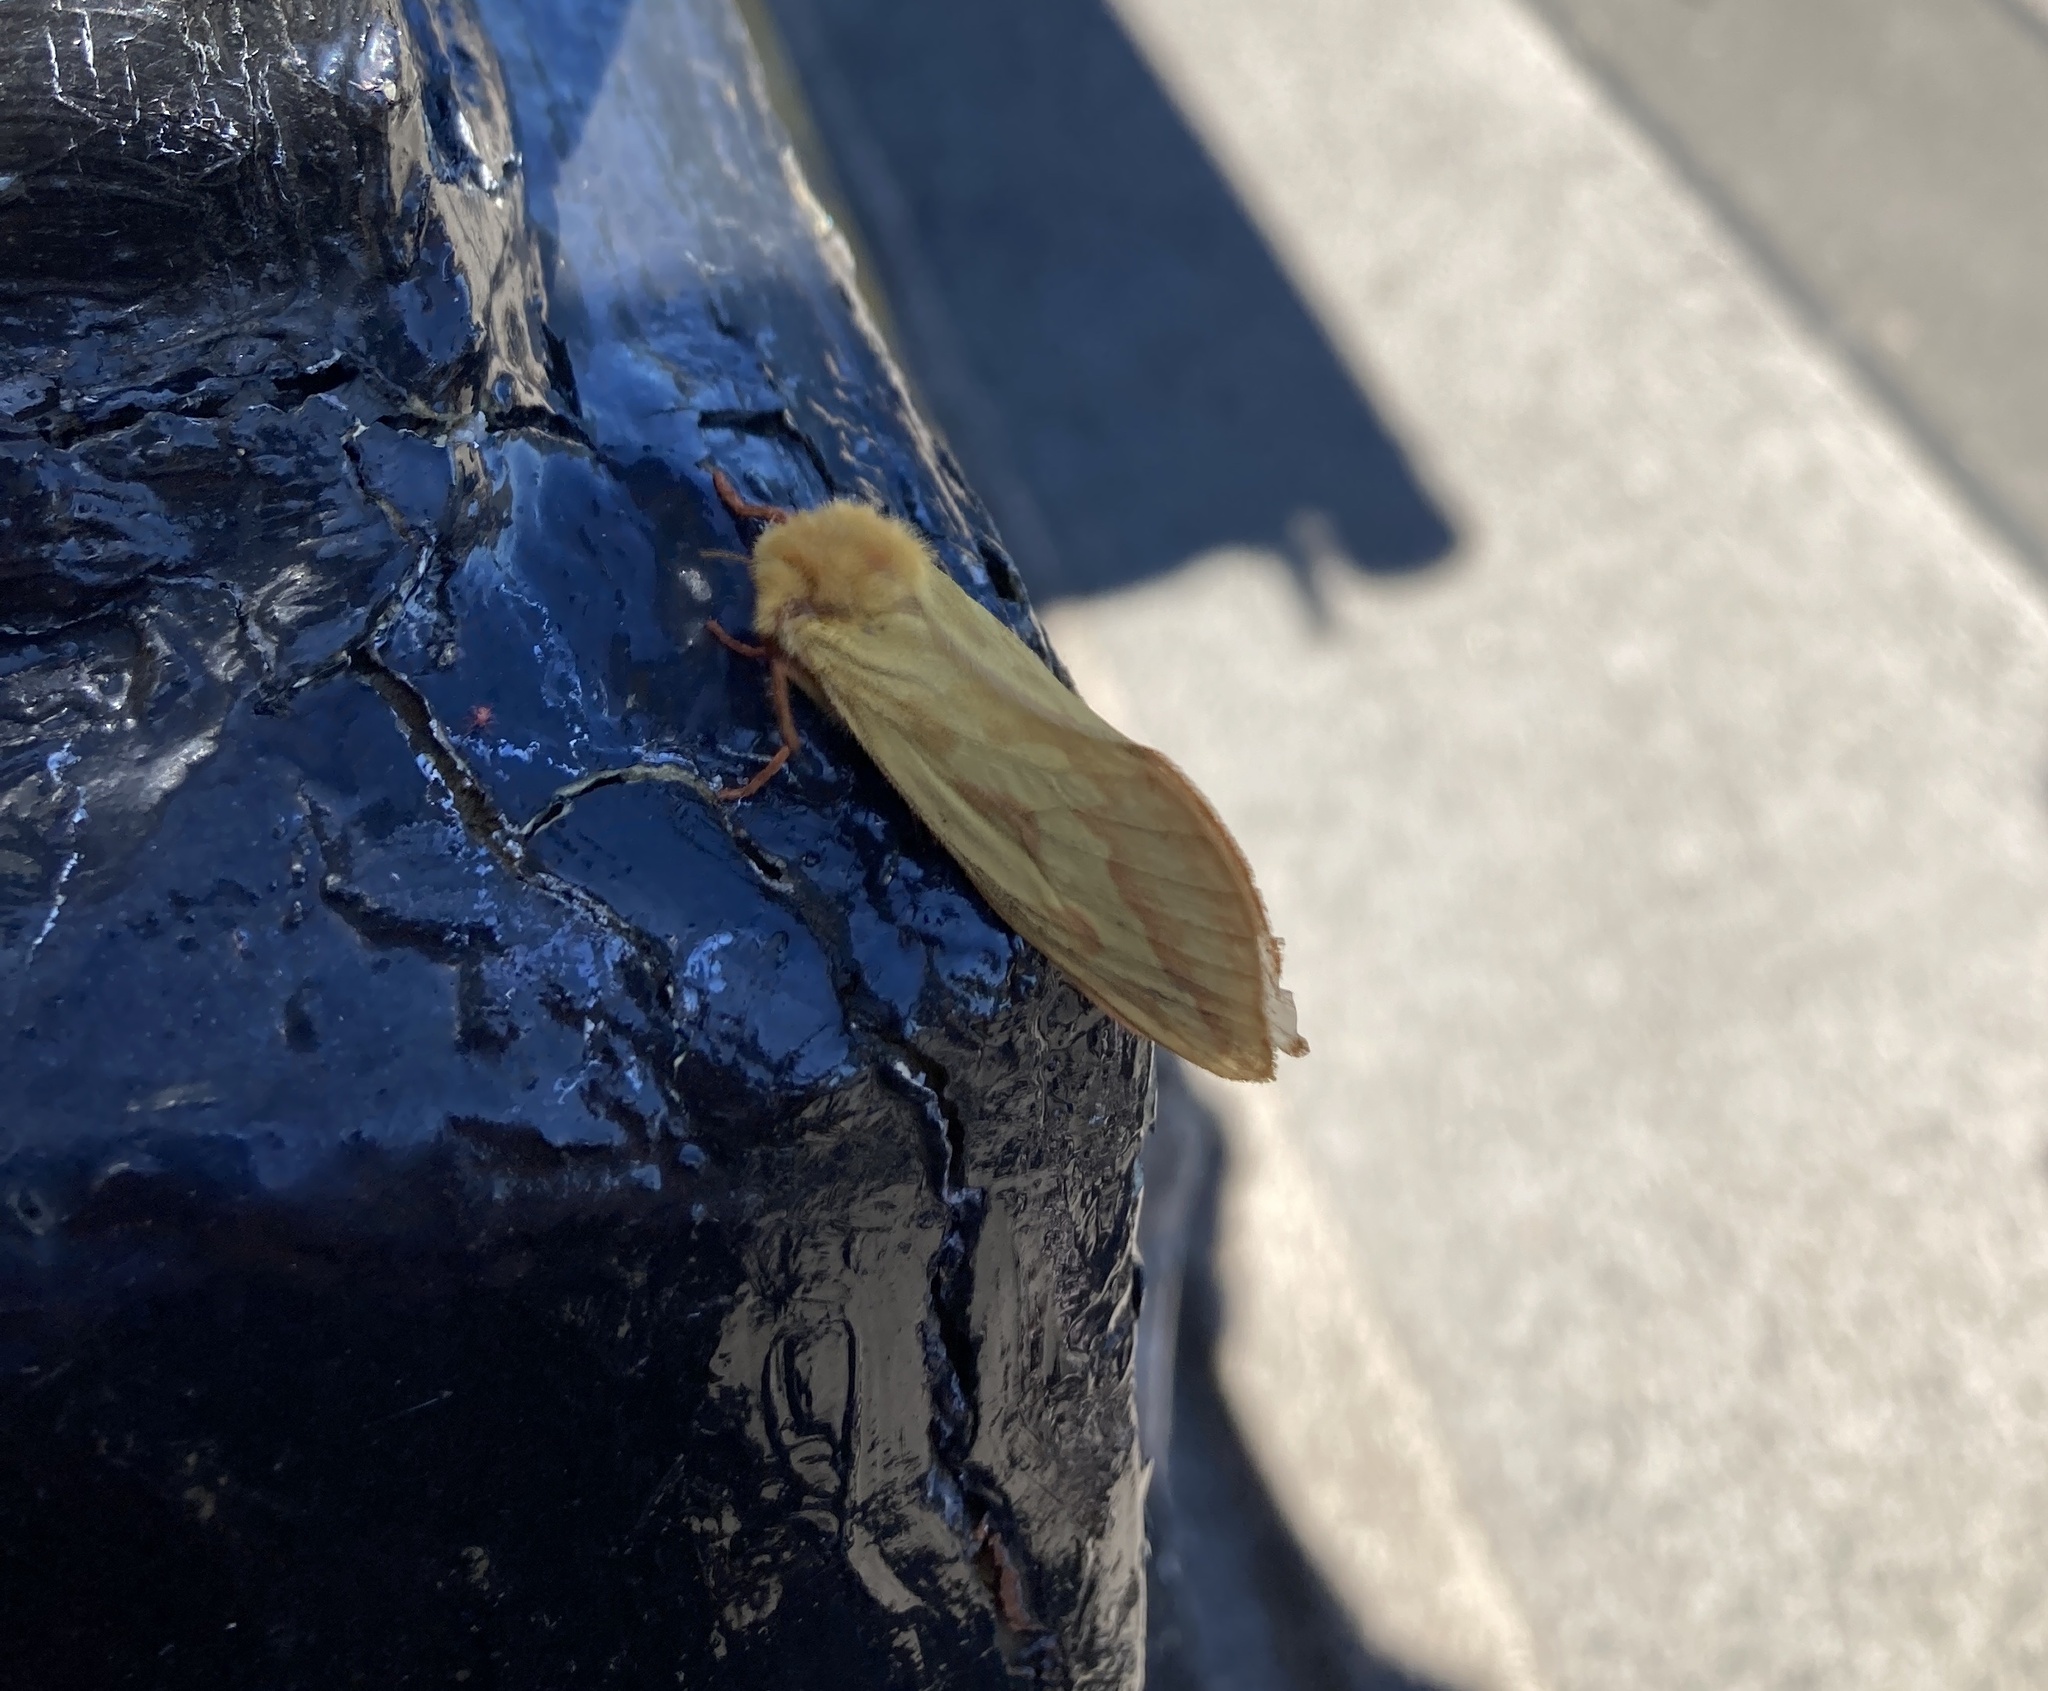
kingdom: Animalia
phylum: Arthropoda
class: Insecta
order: Lepidoptera
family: Hepialidae
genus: Hepialus
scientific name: Hepialus humuli
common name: Ghost moth
